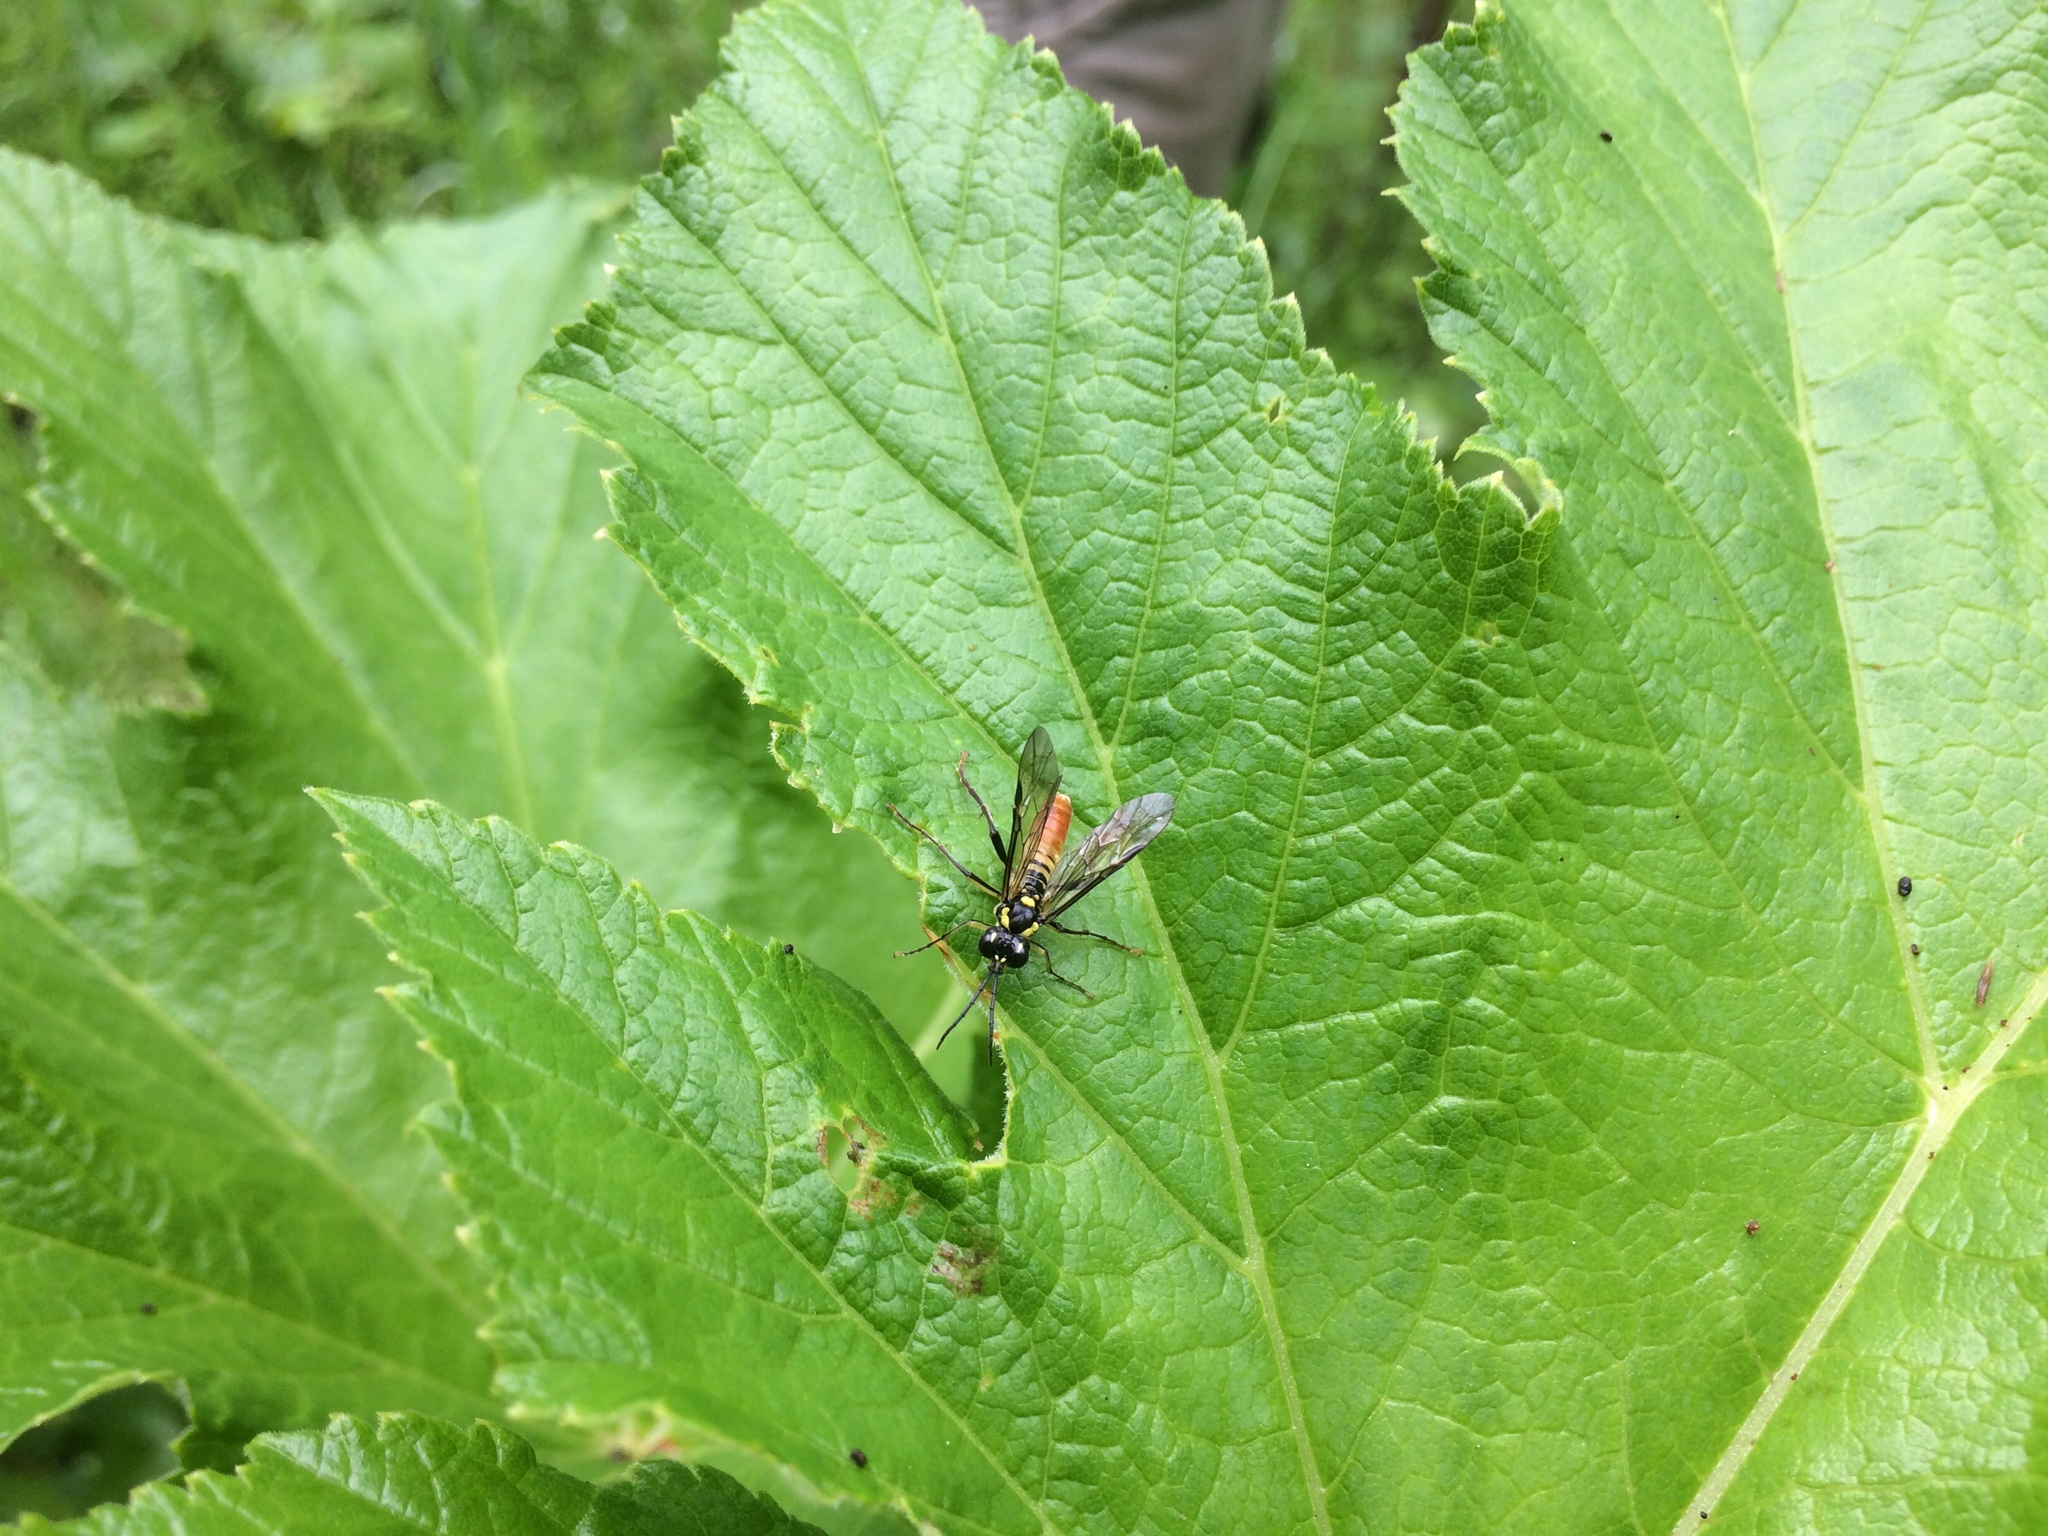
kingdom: Animalia
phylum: Arthropoda
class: Insecta
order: Hymenoptera
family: Tenthredinidae
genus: Tenthredo
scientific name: Tenthredo
